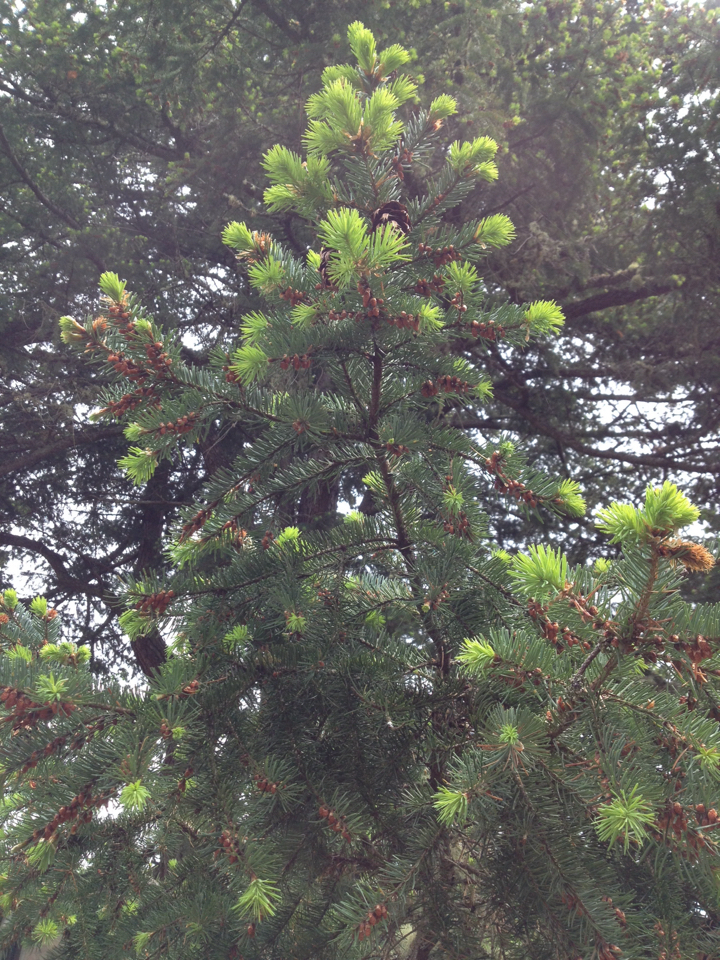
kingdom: Plantae
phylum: Tracheophyta
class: Pinopsida
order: Pinales
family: Pinaceae
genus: Pseudotsuga
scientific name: Pseudotsuga menziesii
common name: Douglas fir
